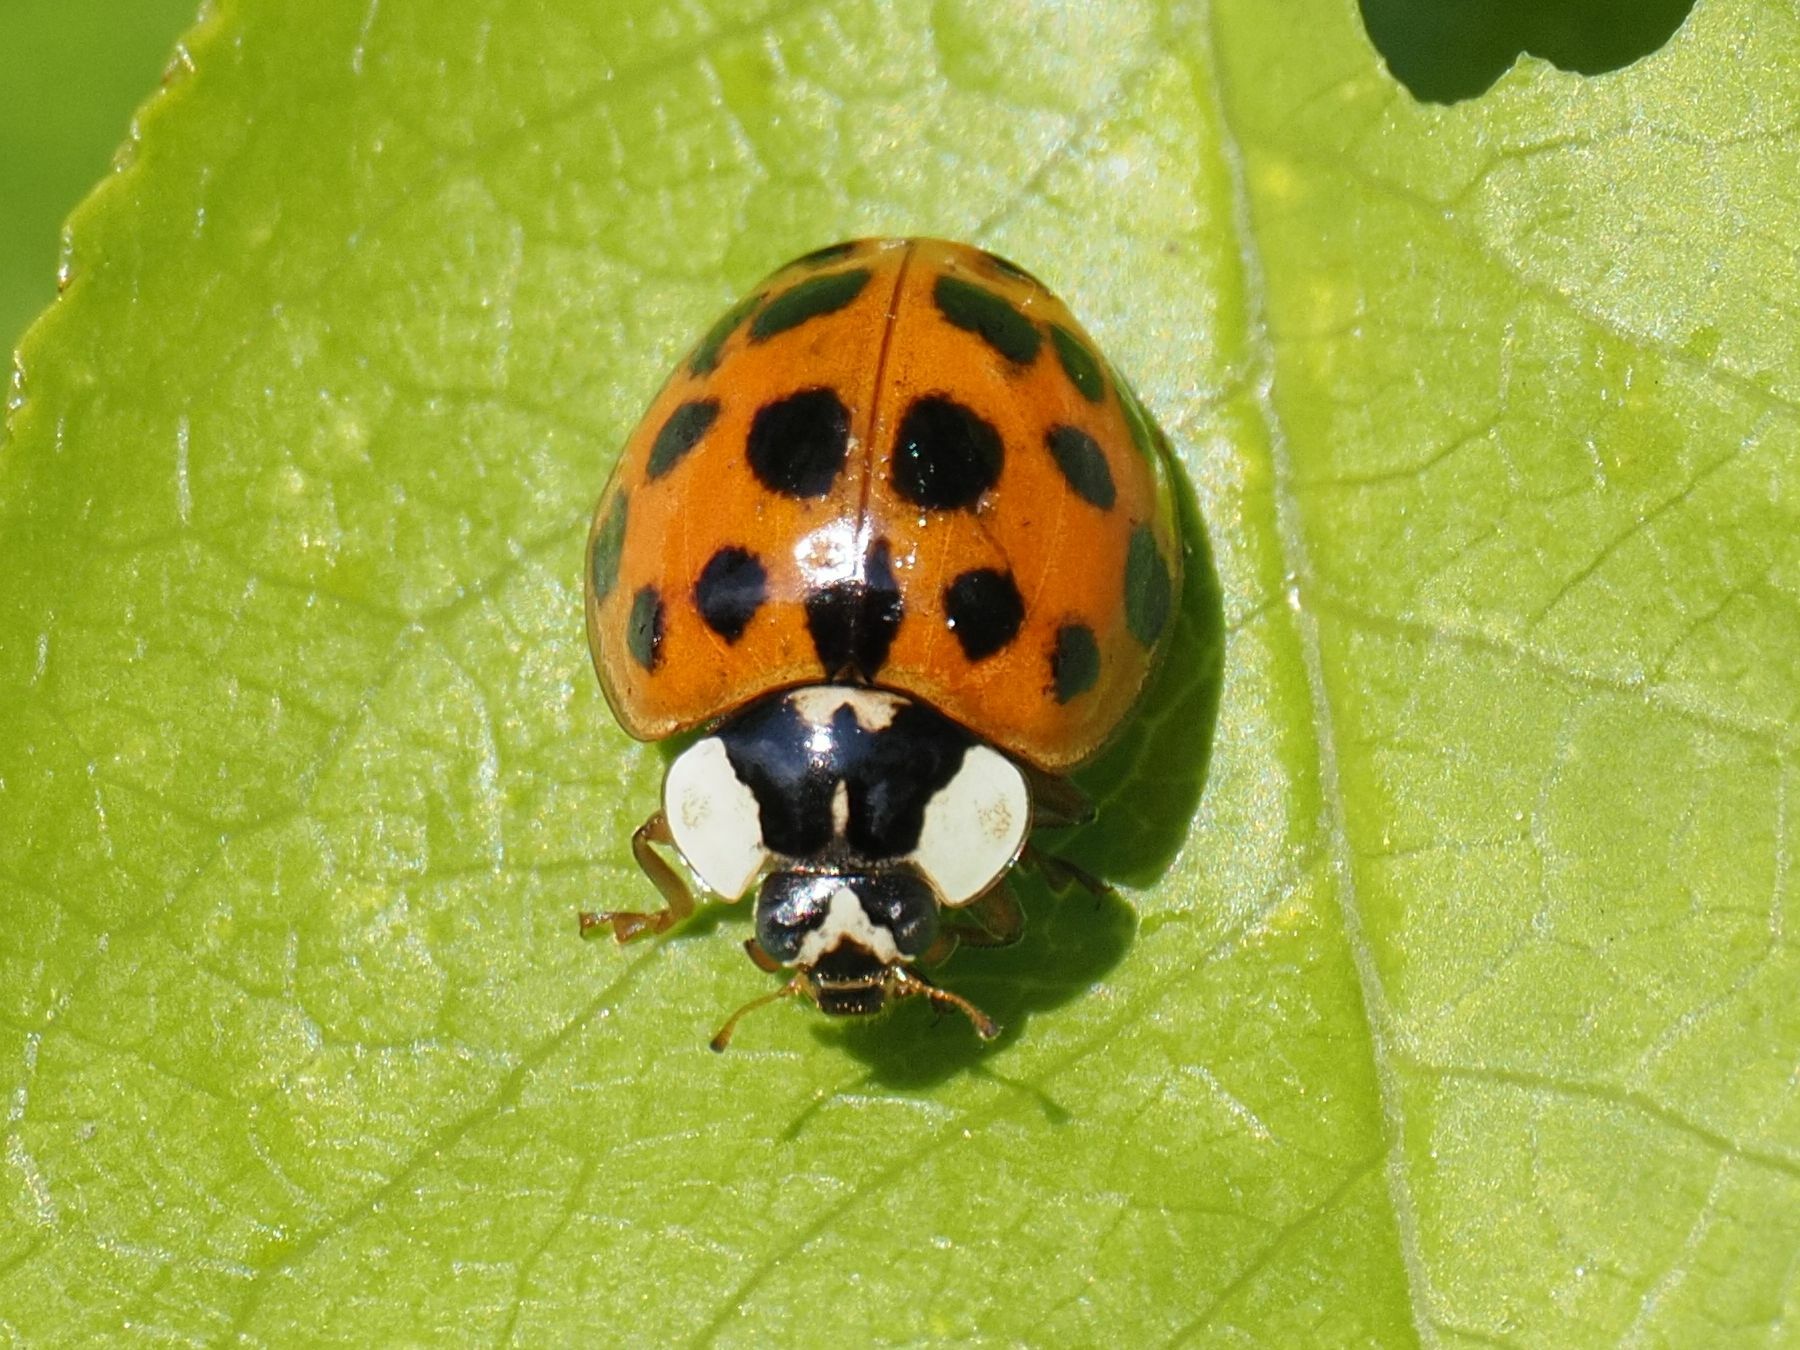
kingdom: Animalia
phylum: Arthropoda
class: Insecta
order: Coleoptera
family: Coccinellidae
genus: Harmonia
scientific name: Harmonia axyridis
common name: Harlequin ladybird
